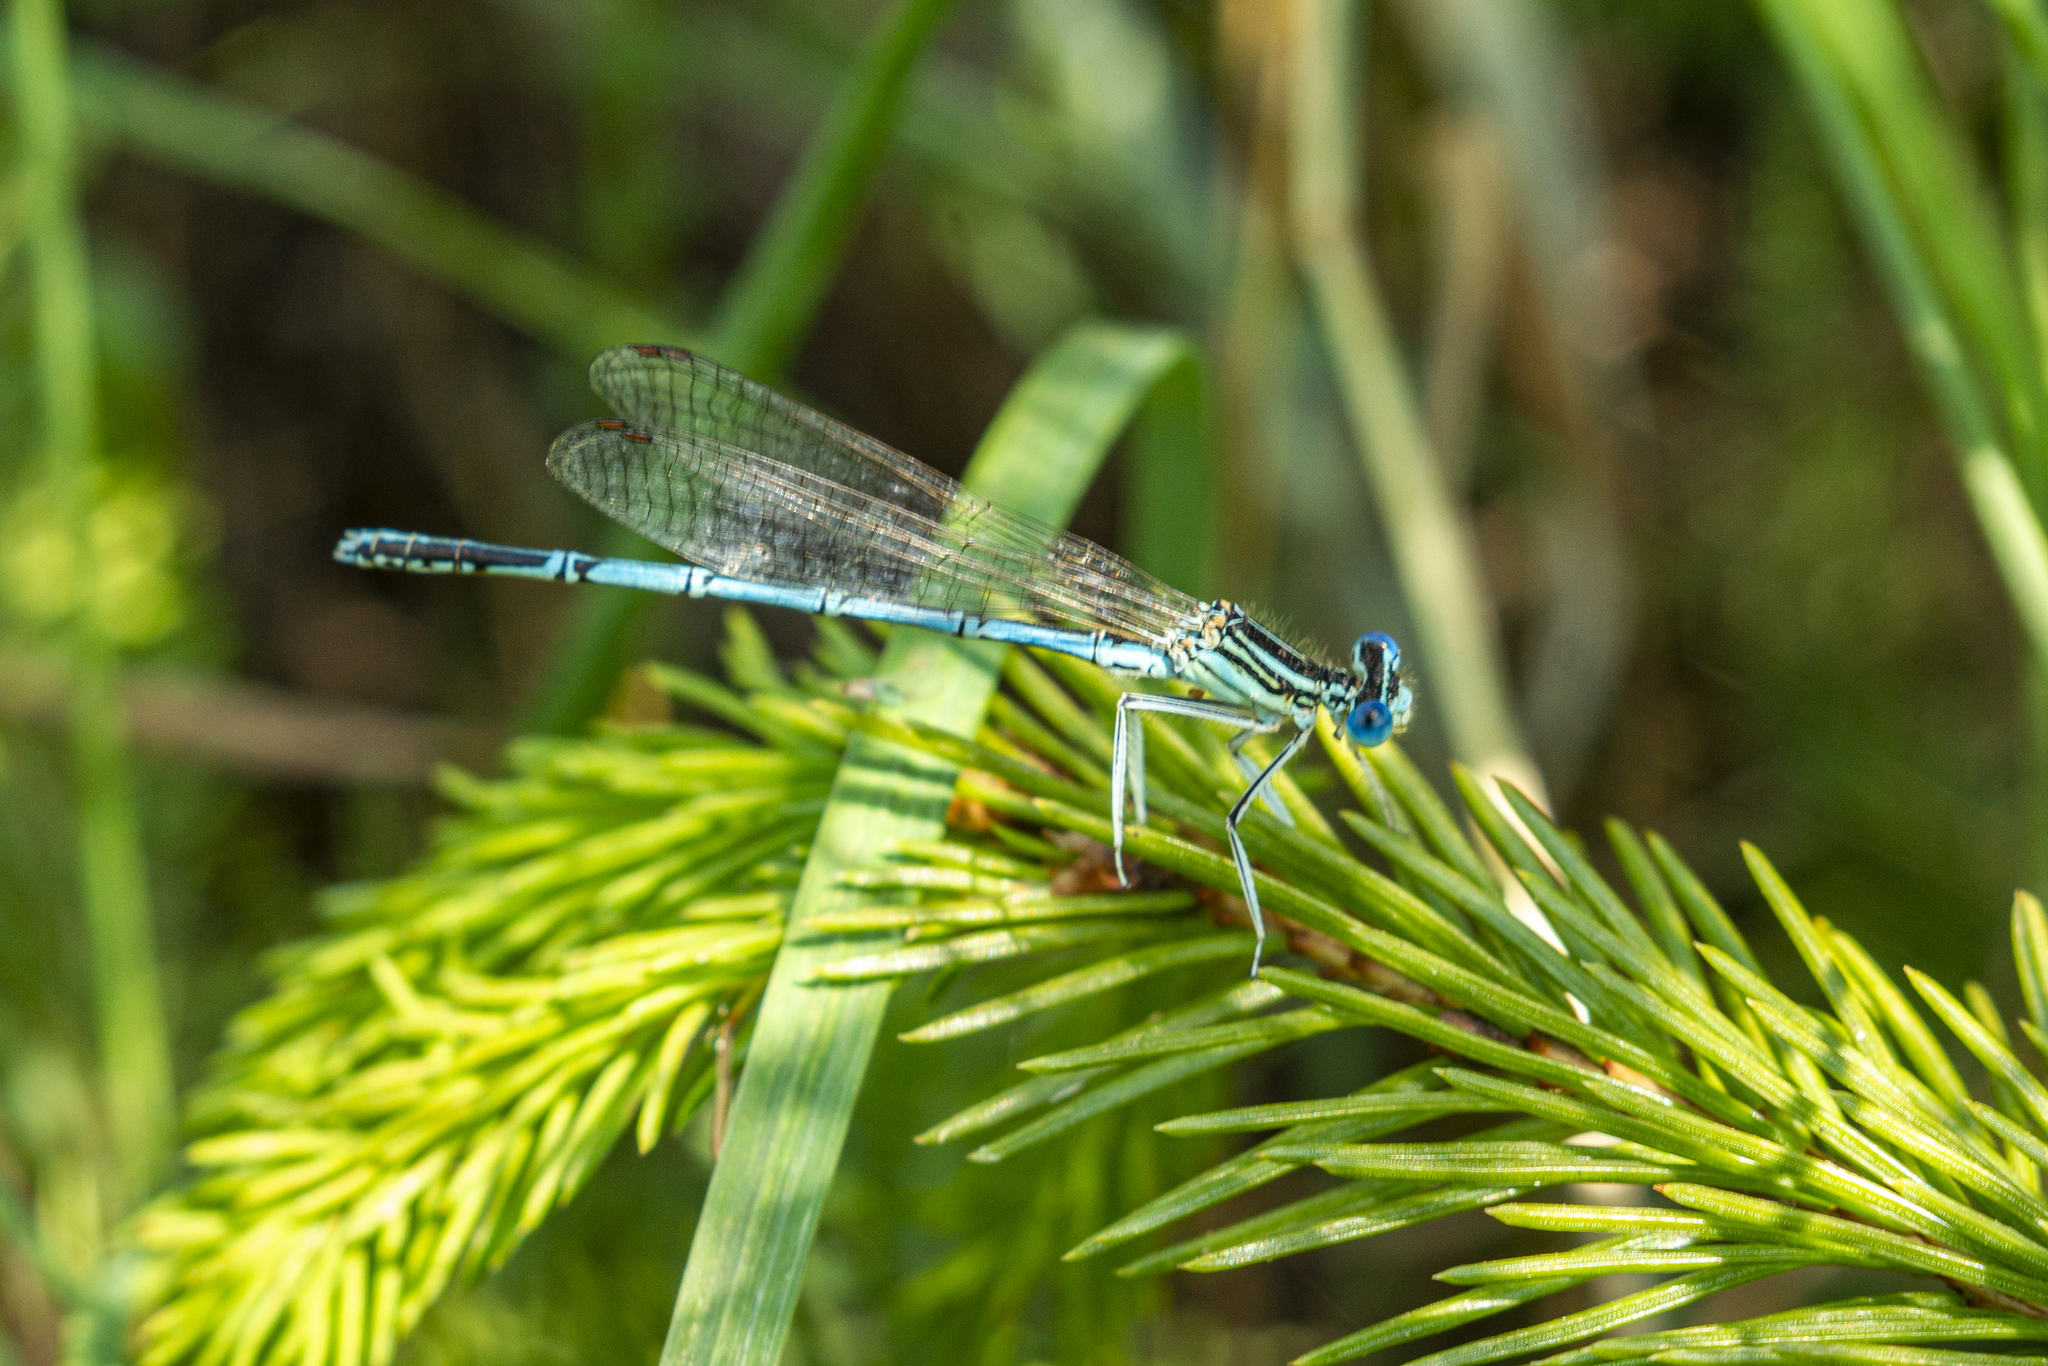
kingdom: Animalia
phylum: Arthropoda
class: Insecta
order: Odonata
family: Platycnemididae
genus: Platycnemis
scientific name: Platycnemis pennipes
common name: White-legged damselfly
